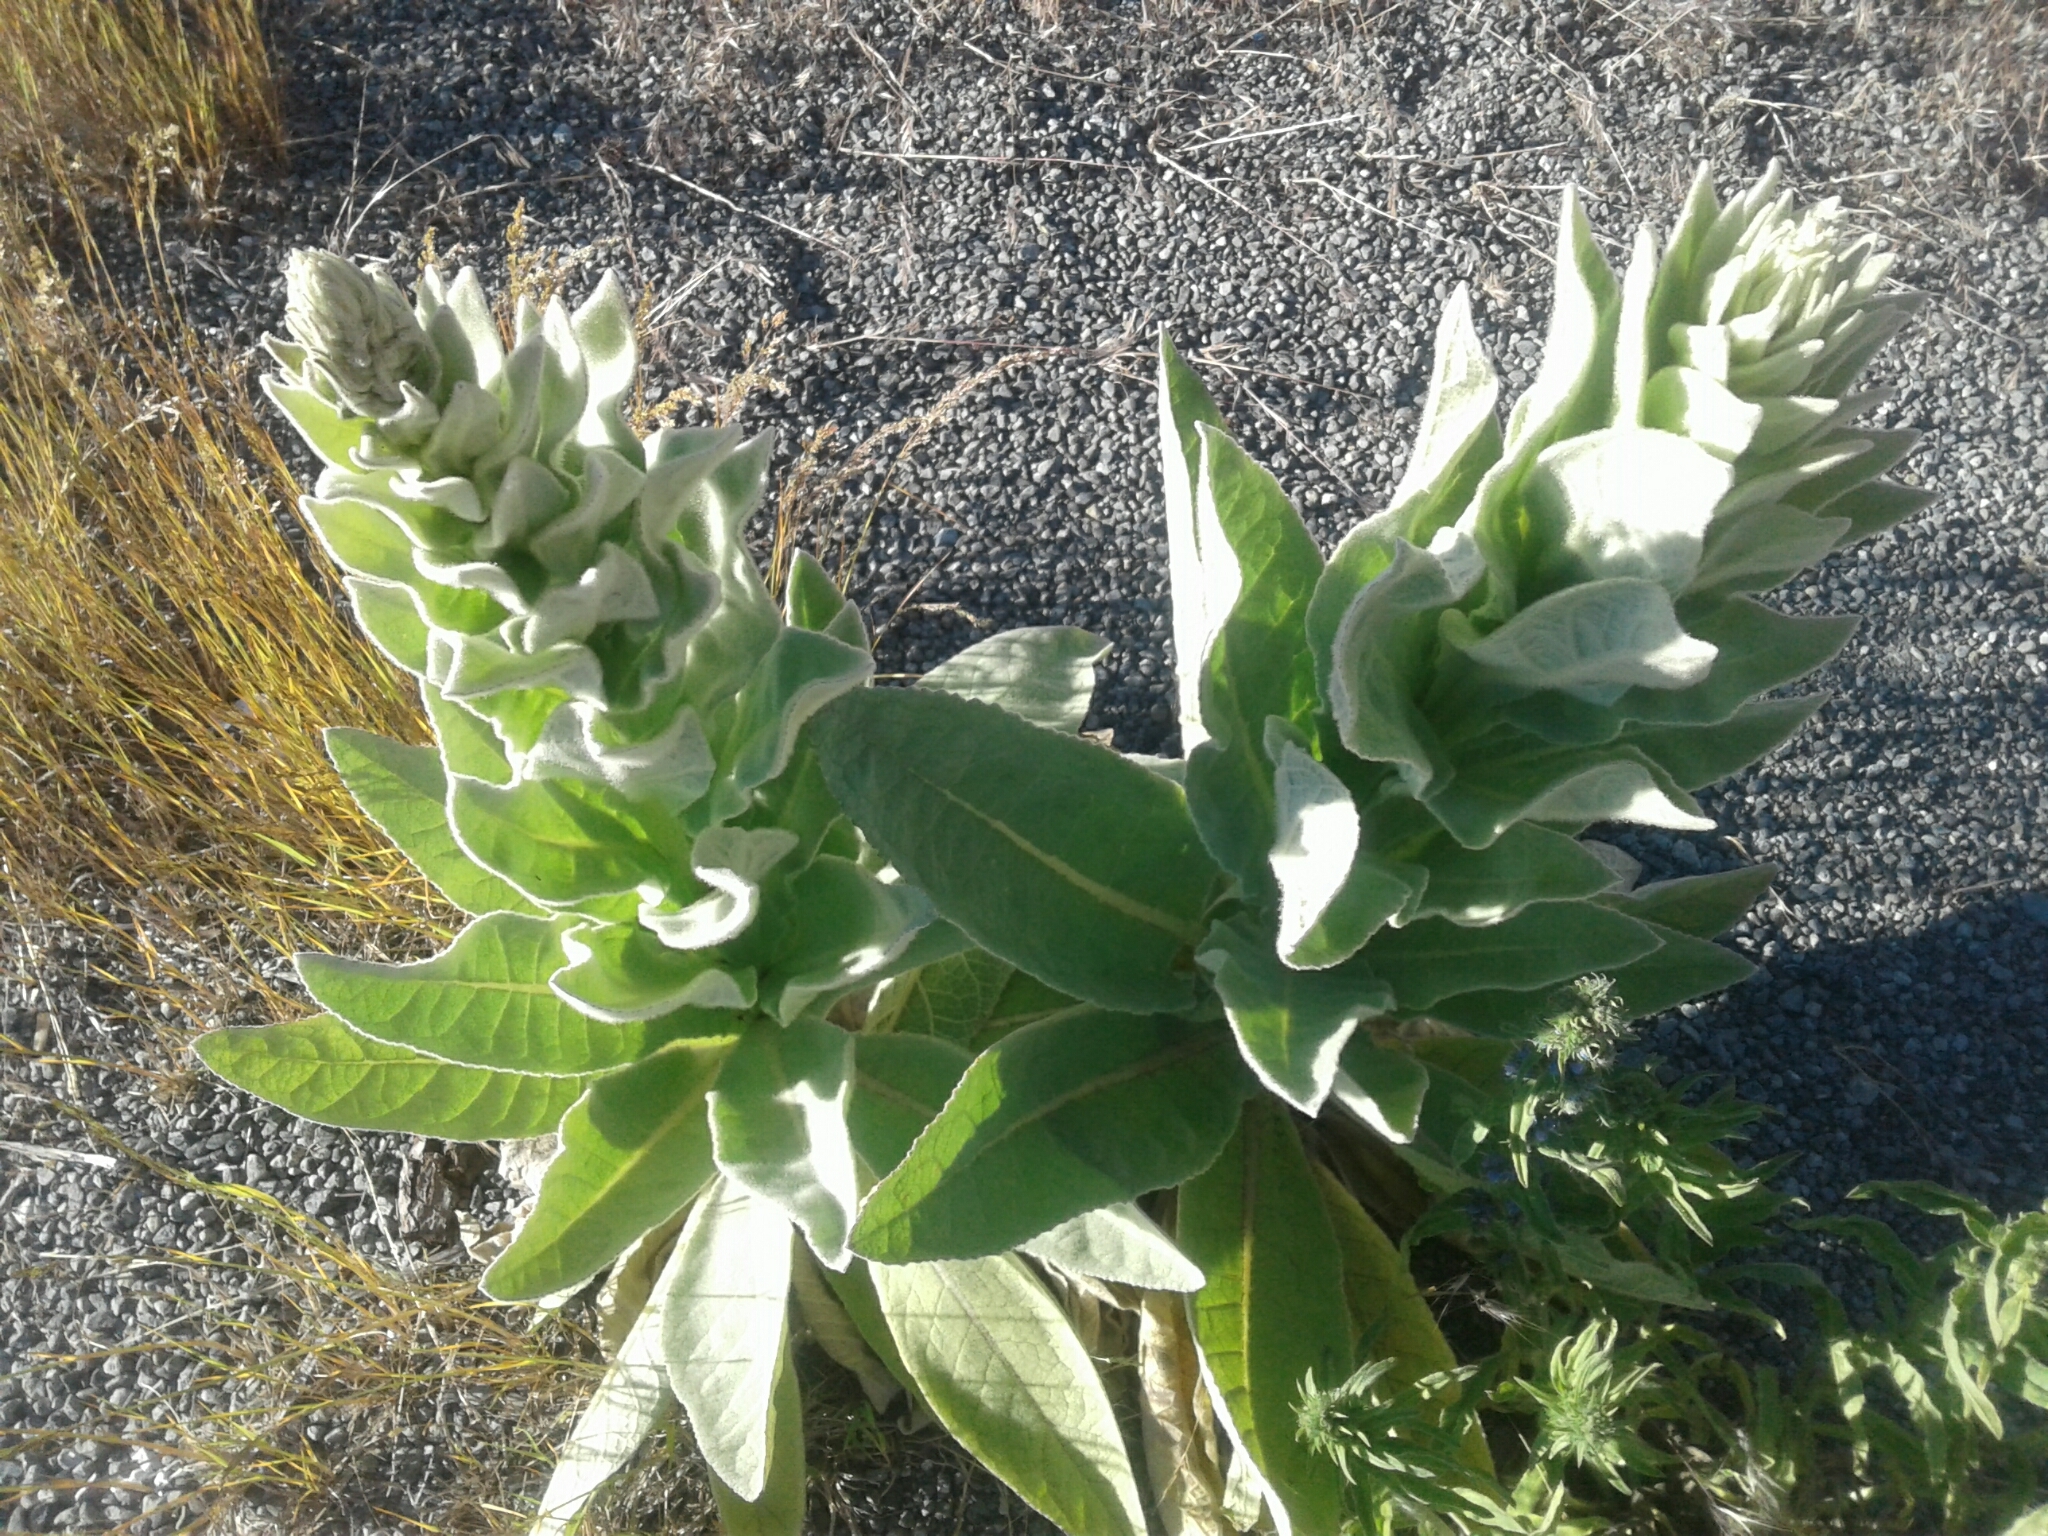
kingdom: Plantae
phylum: Tracheophyta
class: Magnoliopsida
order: Lamiales
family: Scrophulariaceae
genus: Verbascum
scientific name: Verbascum thapsus
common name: Common mullein
